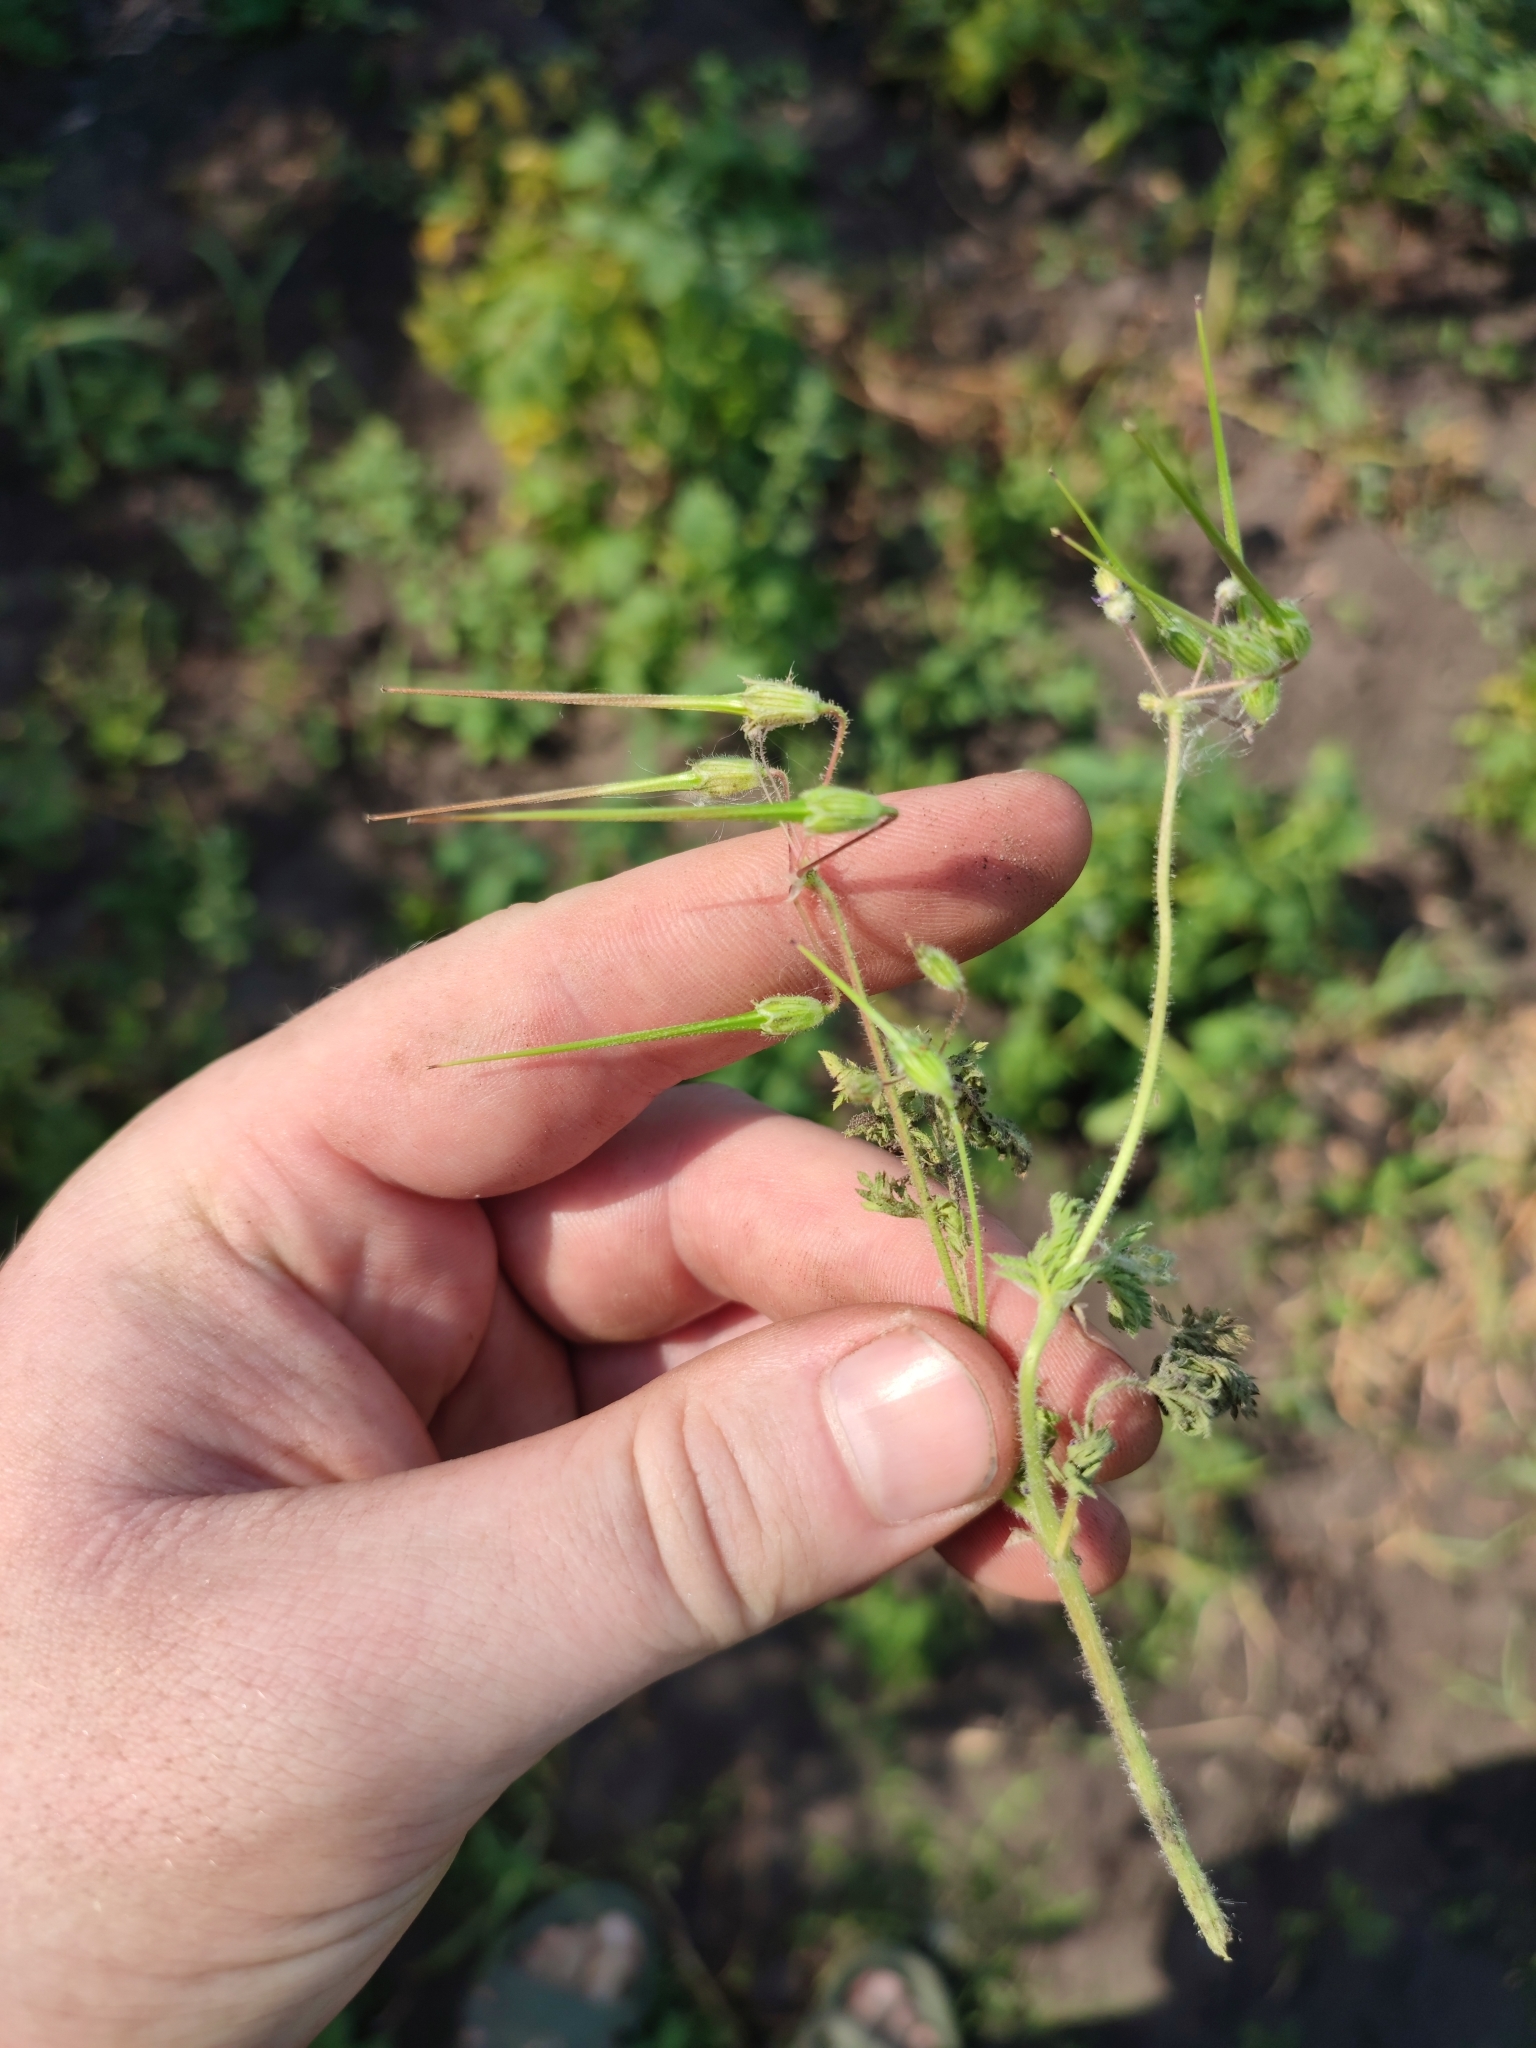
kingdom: Plantae
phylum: Tracheophyta
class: Magnoliopsida
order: Geraniales
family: Geraniaceae
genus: Erodium
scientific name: Erodium cicutarium
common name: Common stork's-bill
